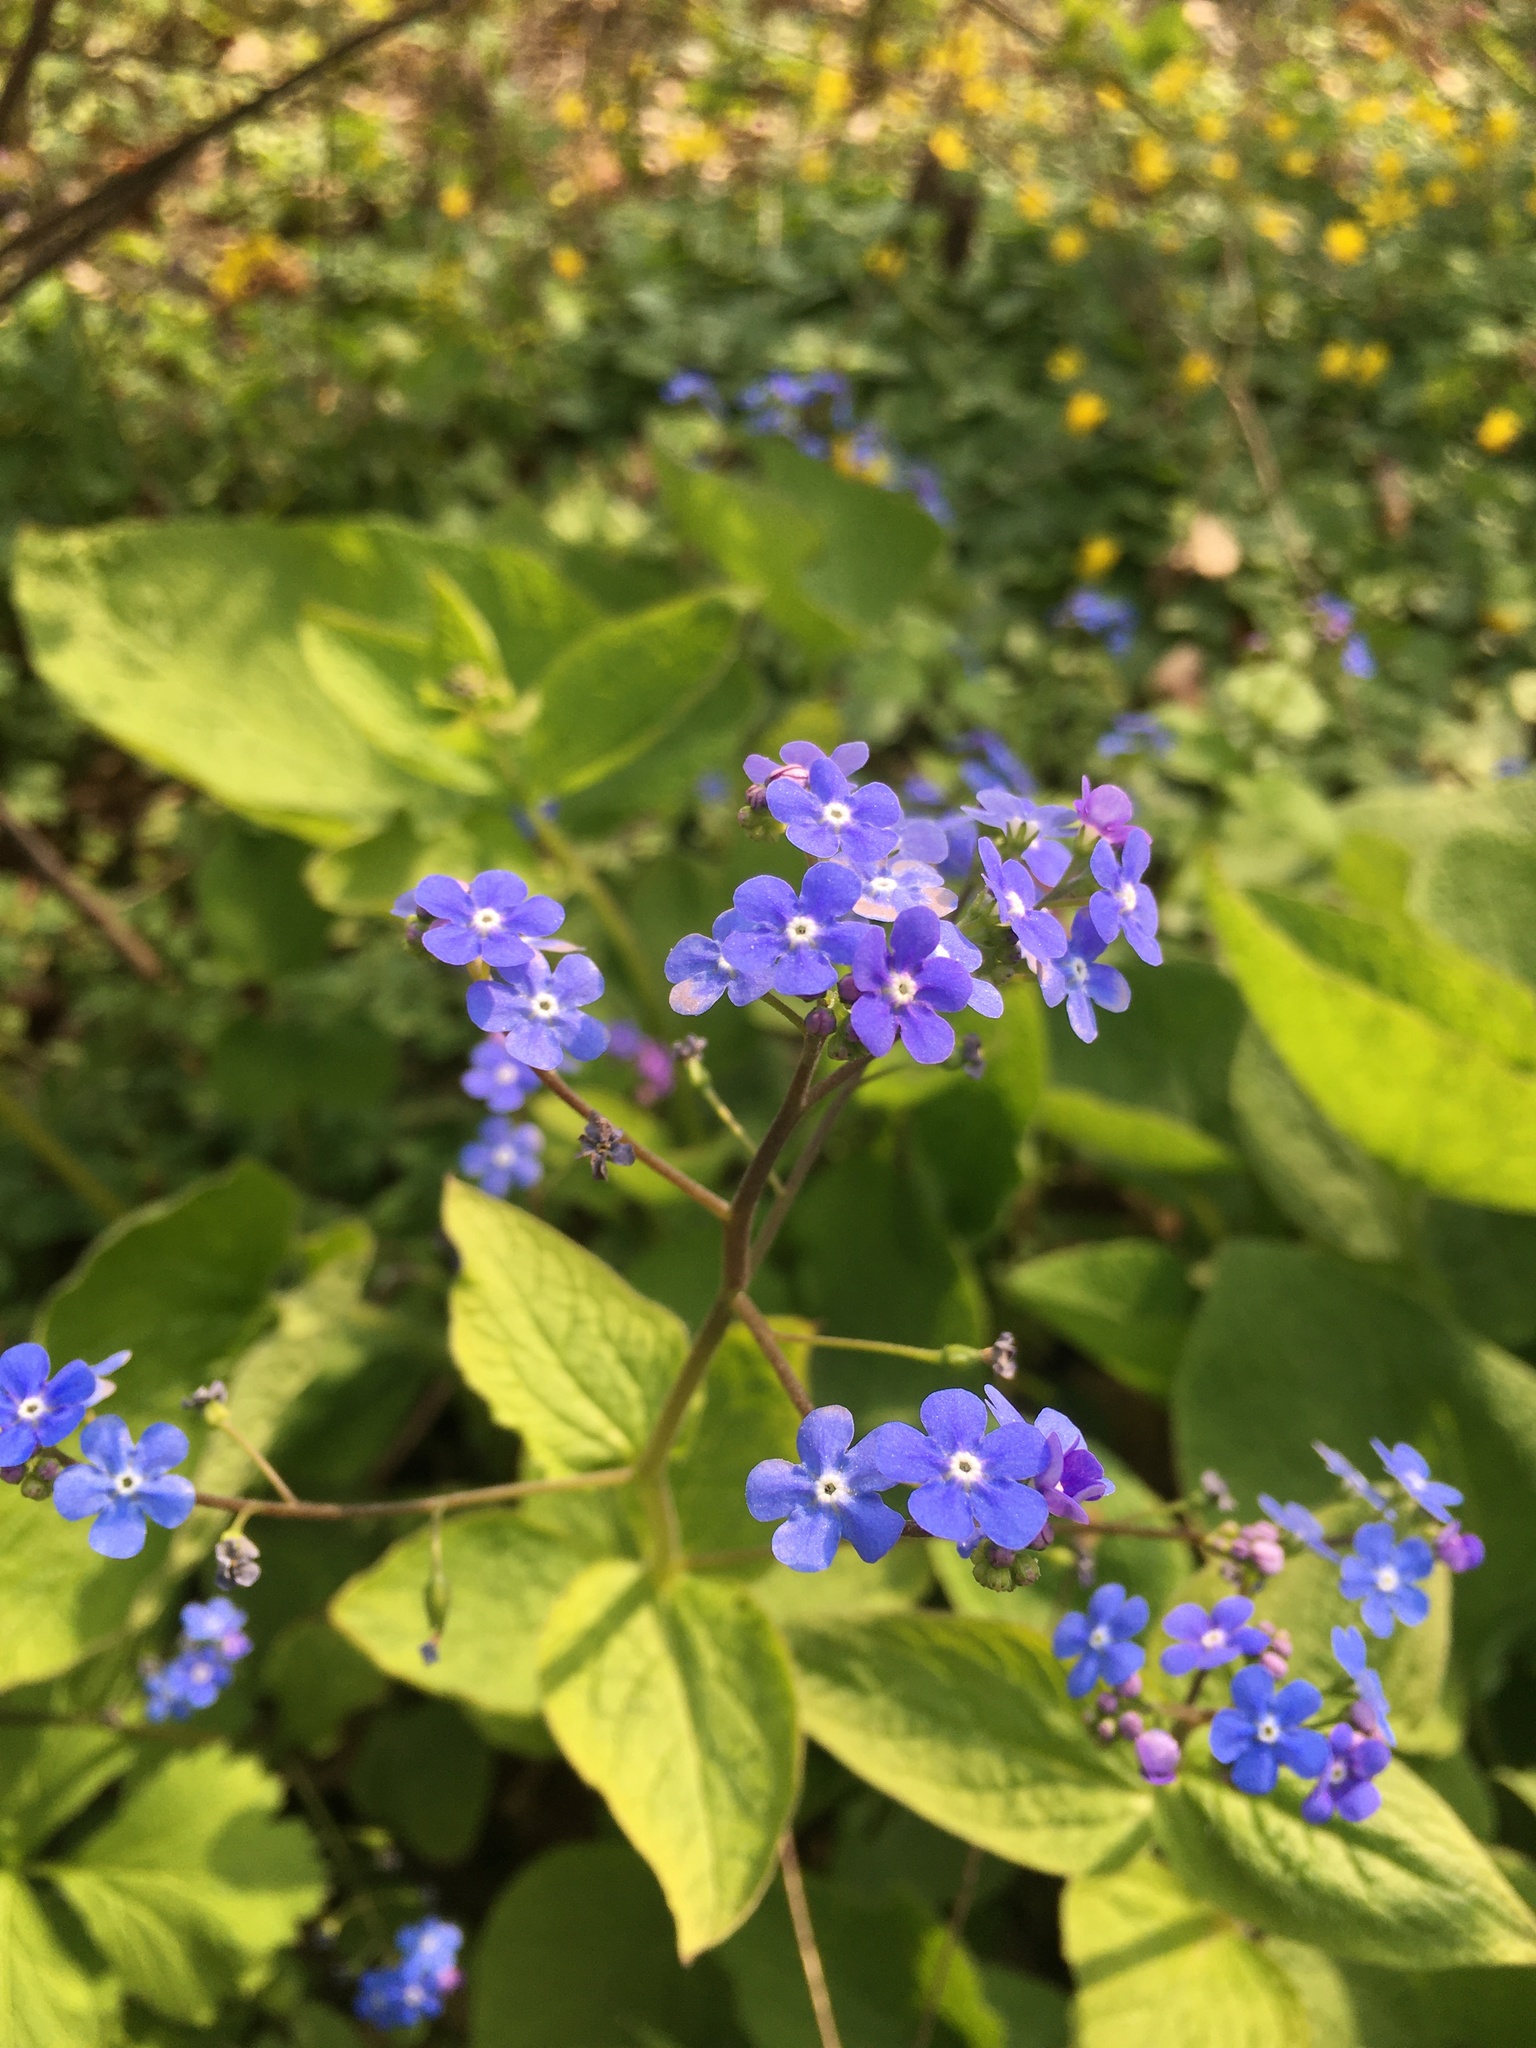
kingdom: Plantae
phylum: Tracheophyta
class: Magnoliopsida
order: Boraginales
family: Boraginaceae
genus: Brunnera
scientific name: Brunnera macrophylla
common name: Great forget-me-not
